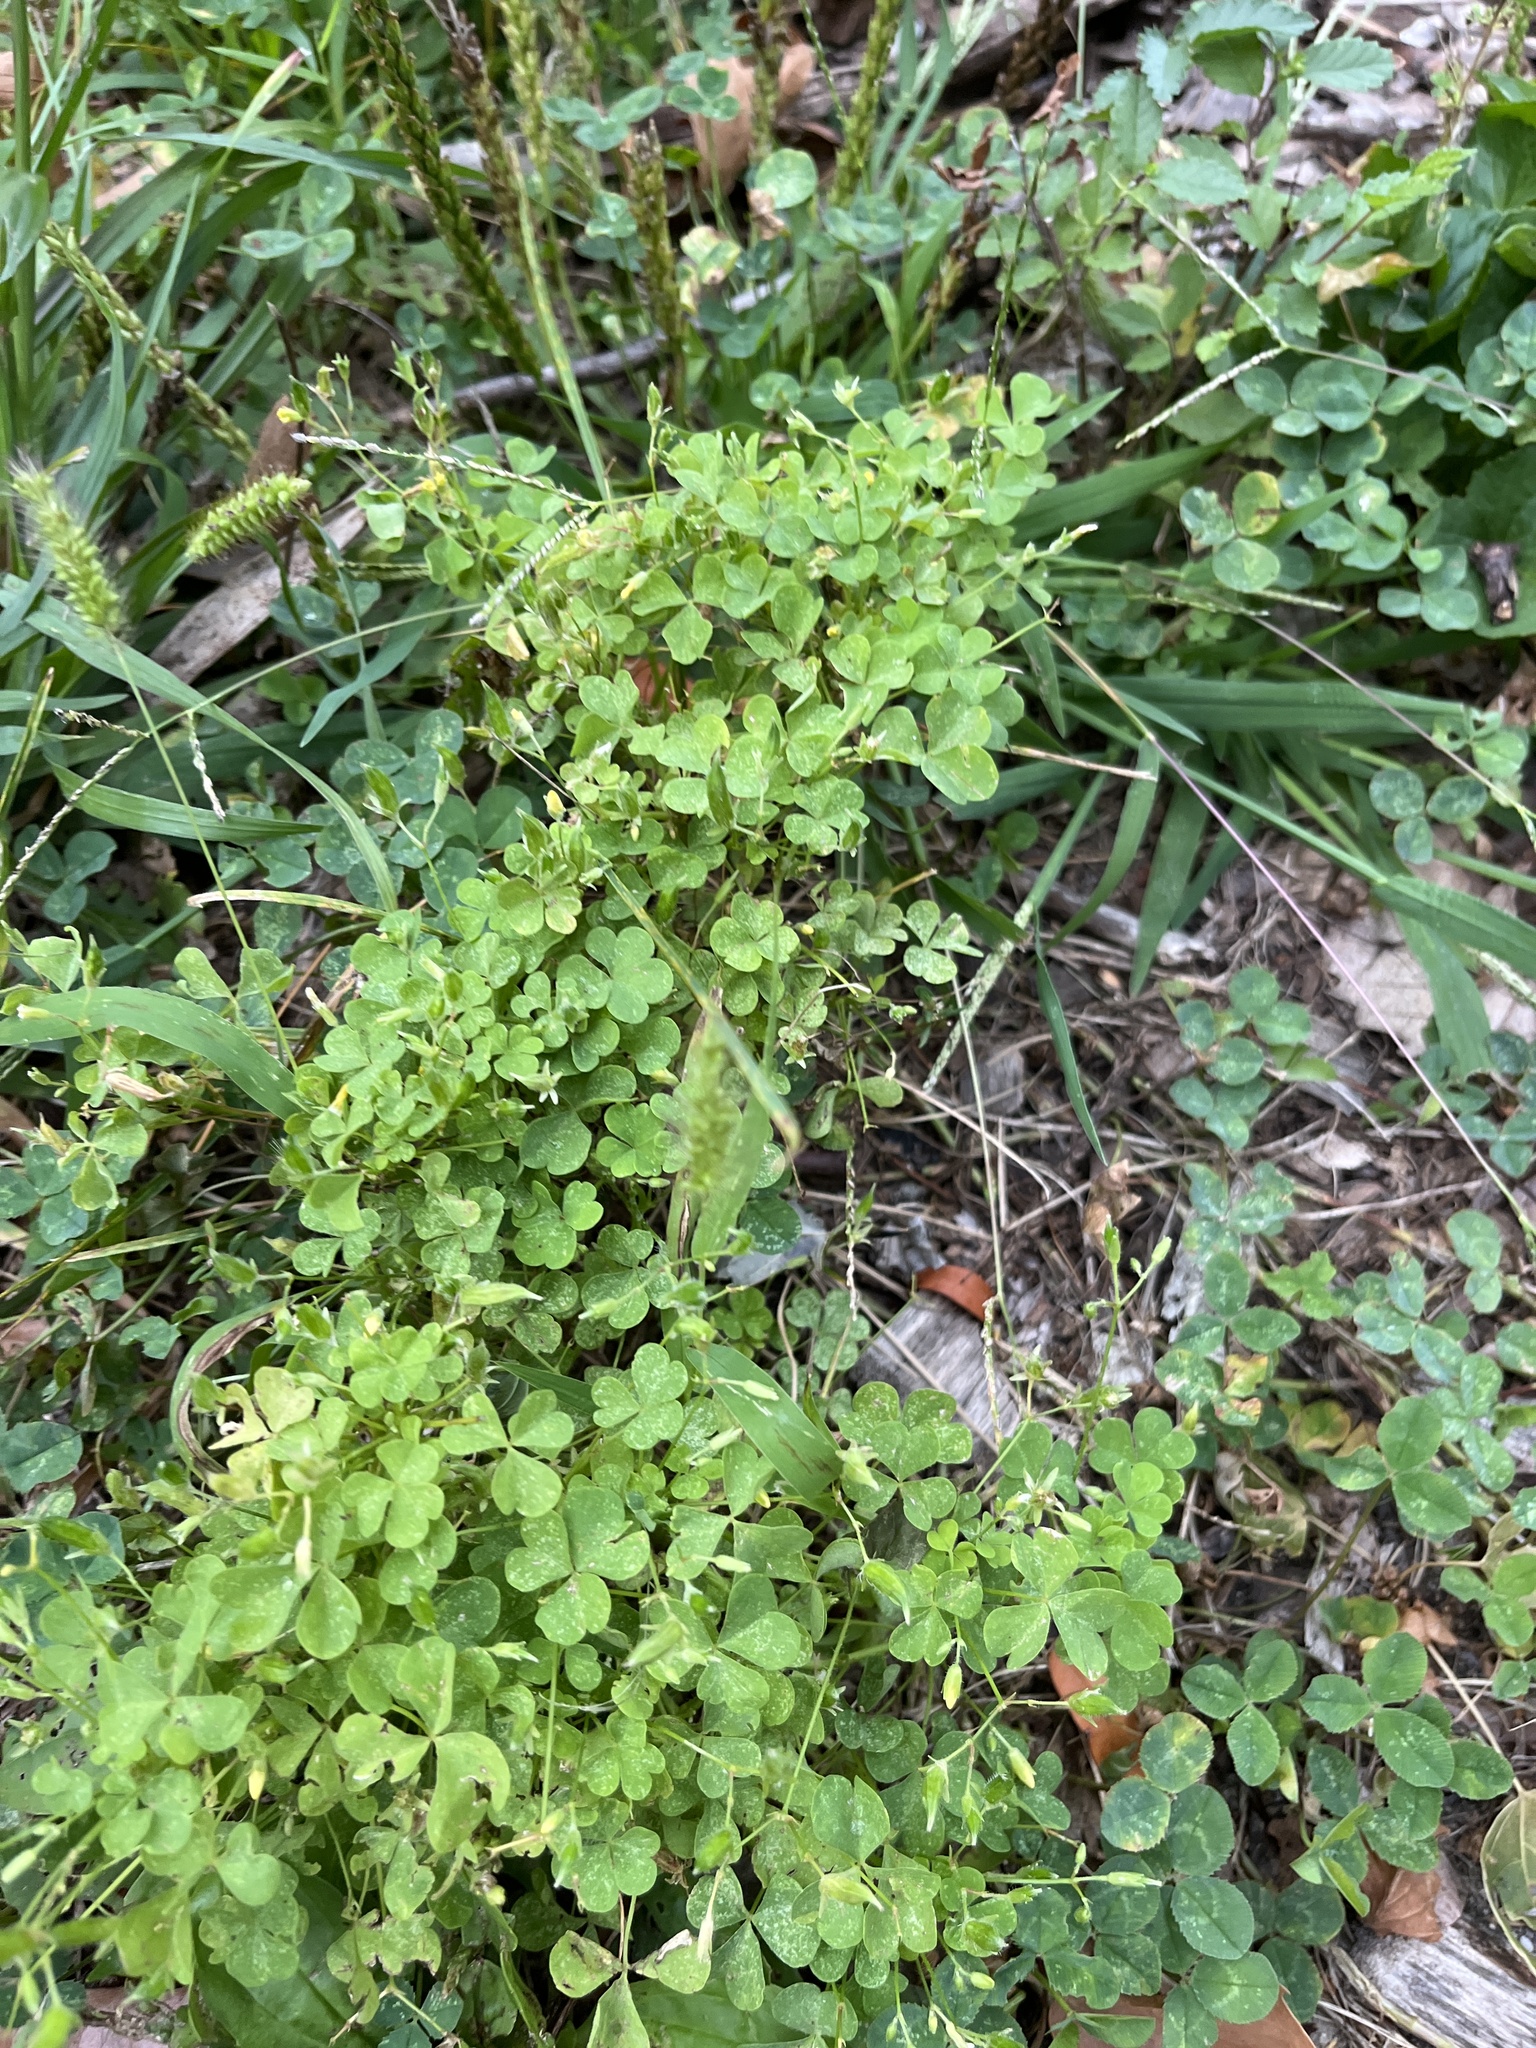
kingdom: Plantae
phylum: Tracheophyta
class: Magnoliopsida
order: Oxalidales
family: Oxalidaceae
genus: Oxalis
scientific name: Oxalis
